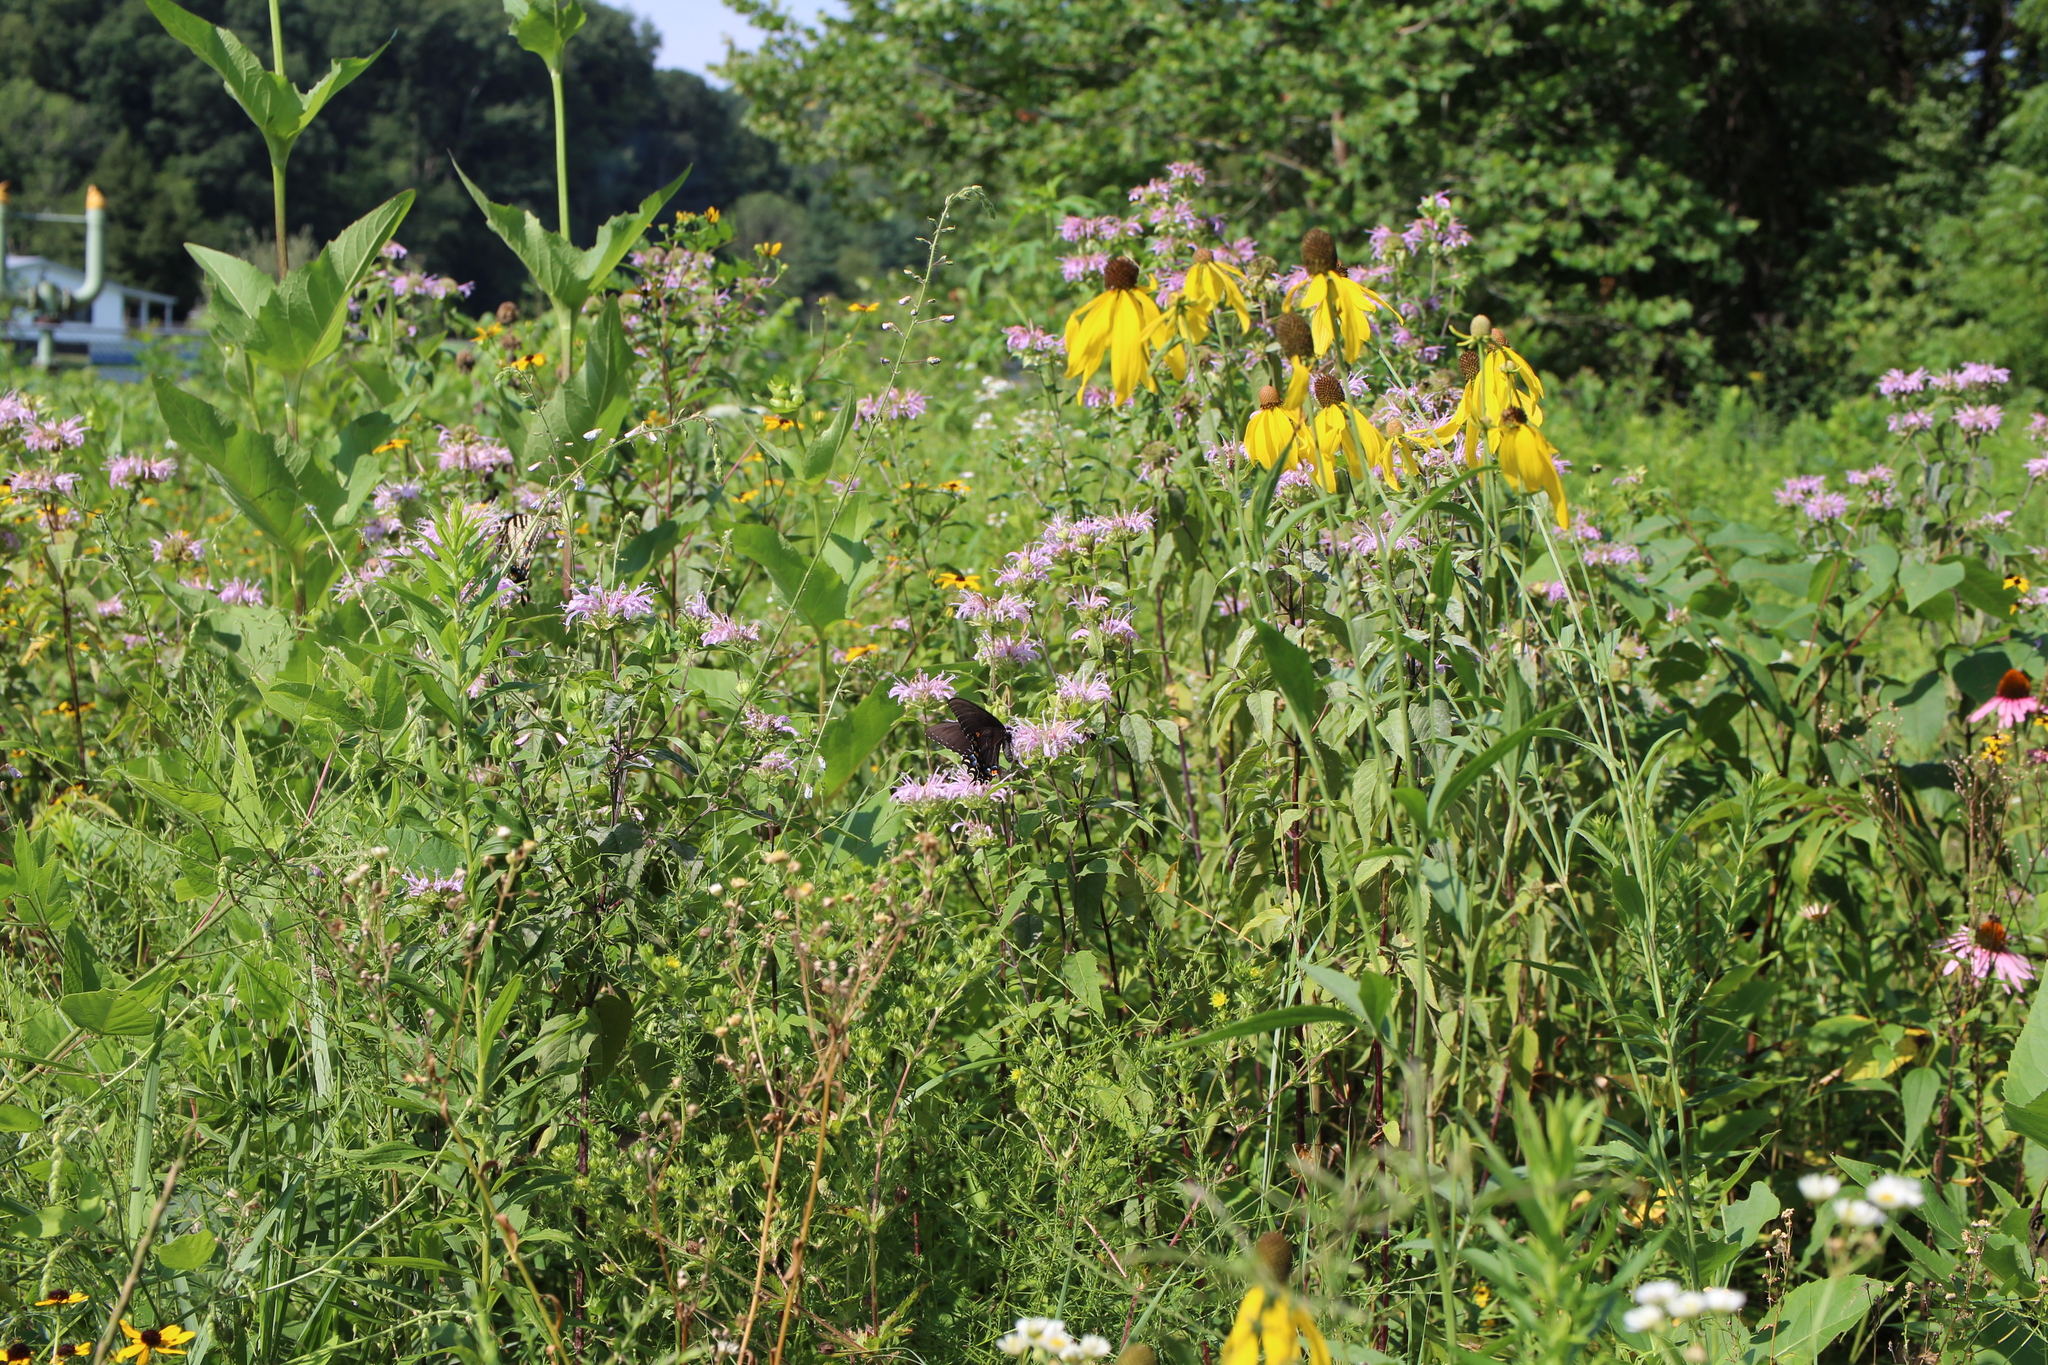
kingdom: Animalia
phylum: Arthropoda
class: Insecta
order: Lepidoptera
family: Papilionidae
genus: Papilio
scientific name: Papilio glaucus
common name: Tiger swallowtail
